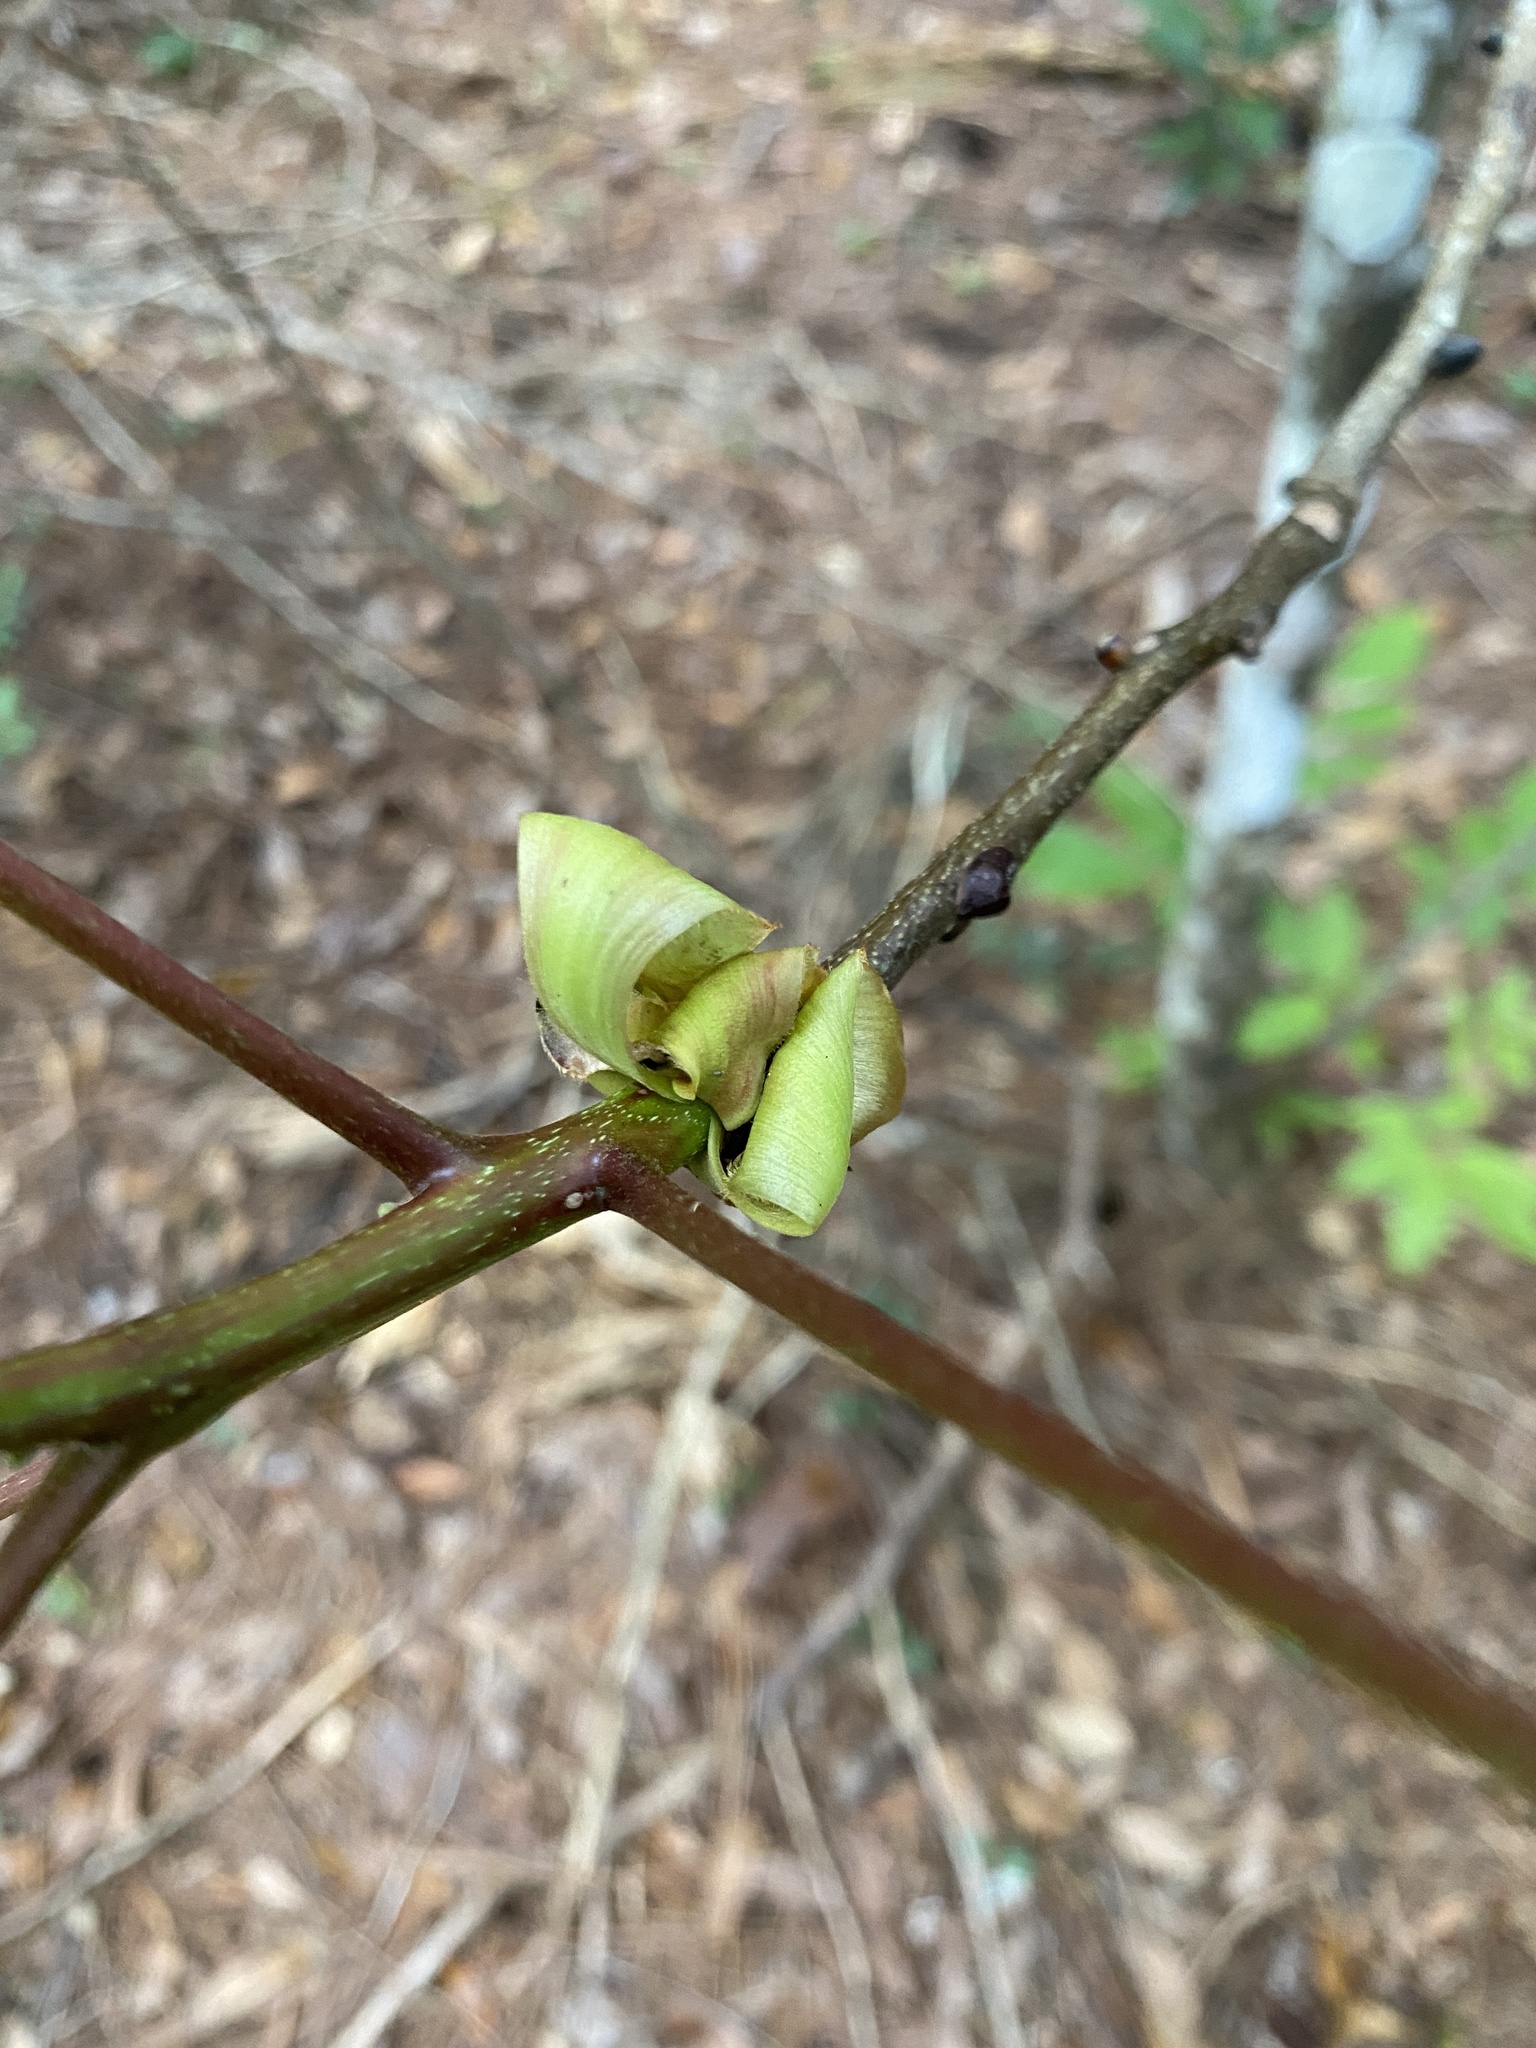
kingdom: Plantae
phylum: Tracheophyta
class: Magnoliopsida
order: Fagales
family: Juglandaceae
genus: Carya
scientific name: Carya glabra
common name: Pignut hickory
